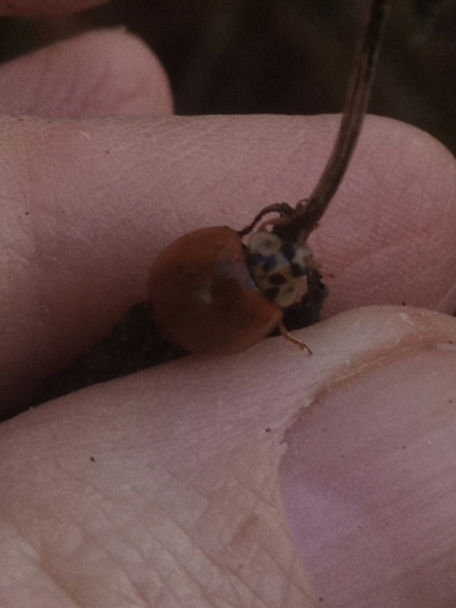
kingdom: Animalia
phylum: Arthropoda
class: Insecta
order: Coleoptera
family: Coccinellidae
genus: Harmonia
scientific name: Harmonia axyridis
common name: Harlequin ladybird
